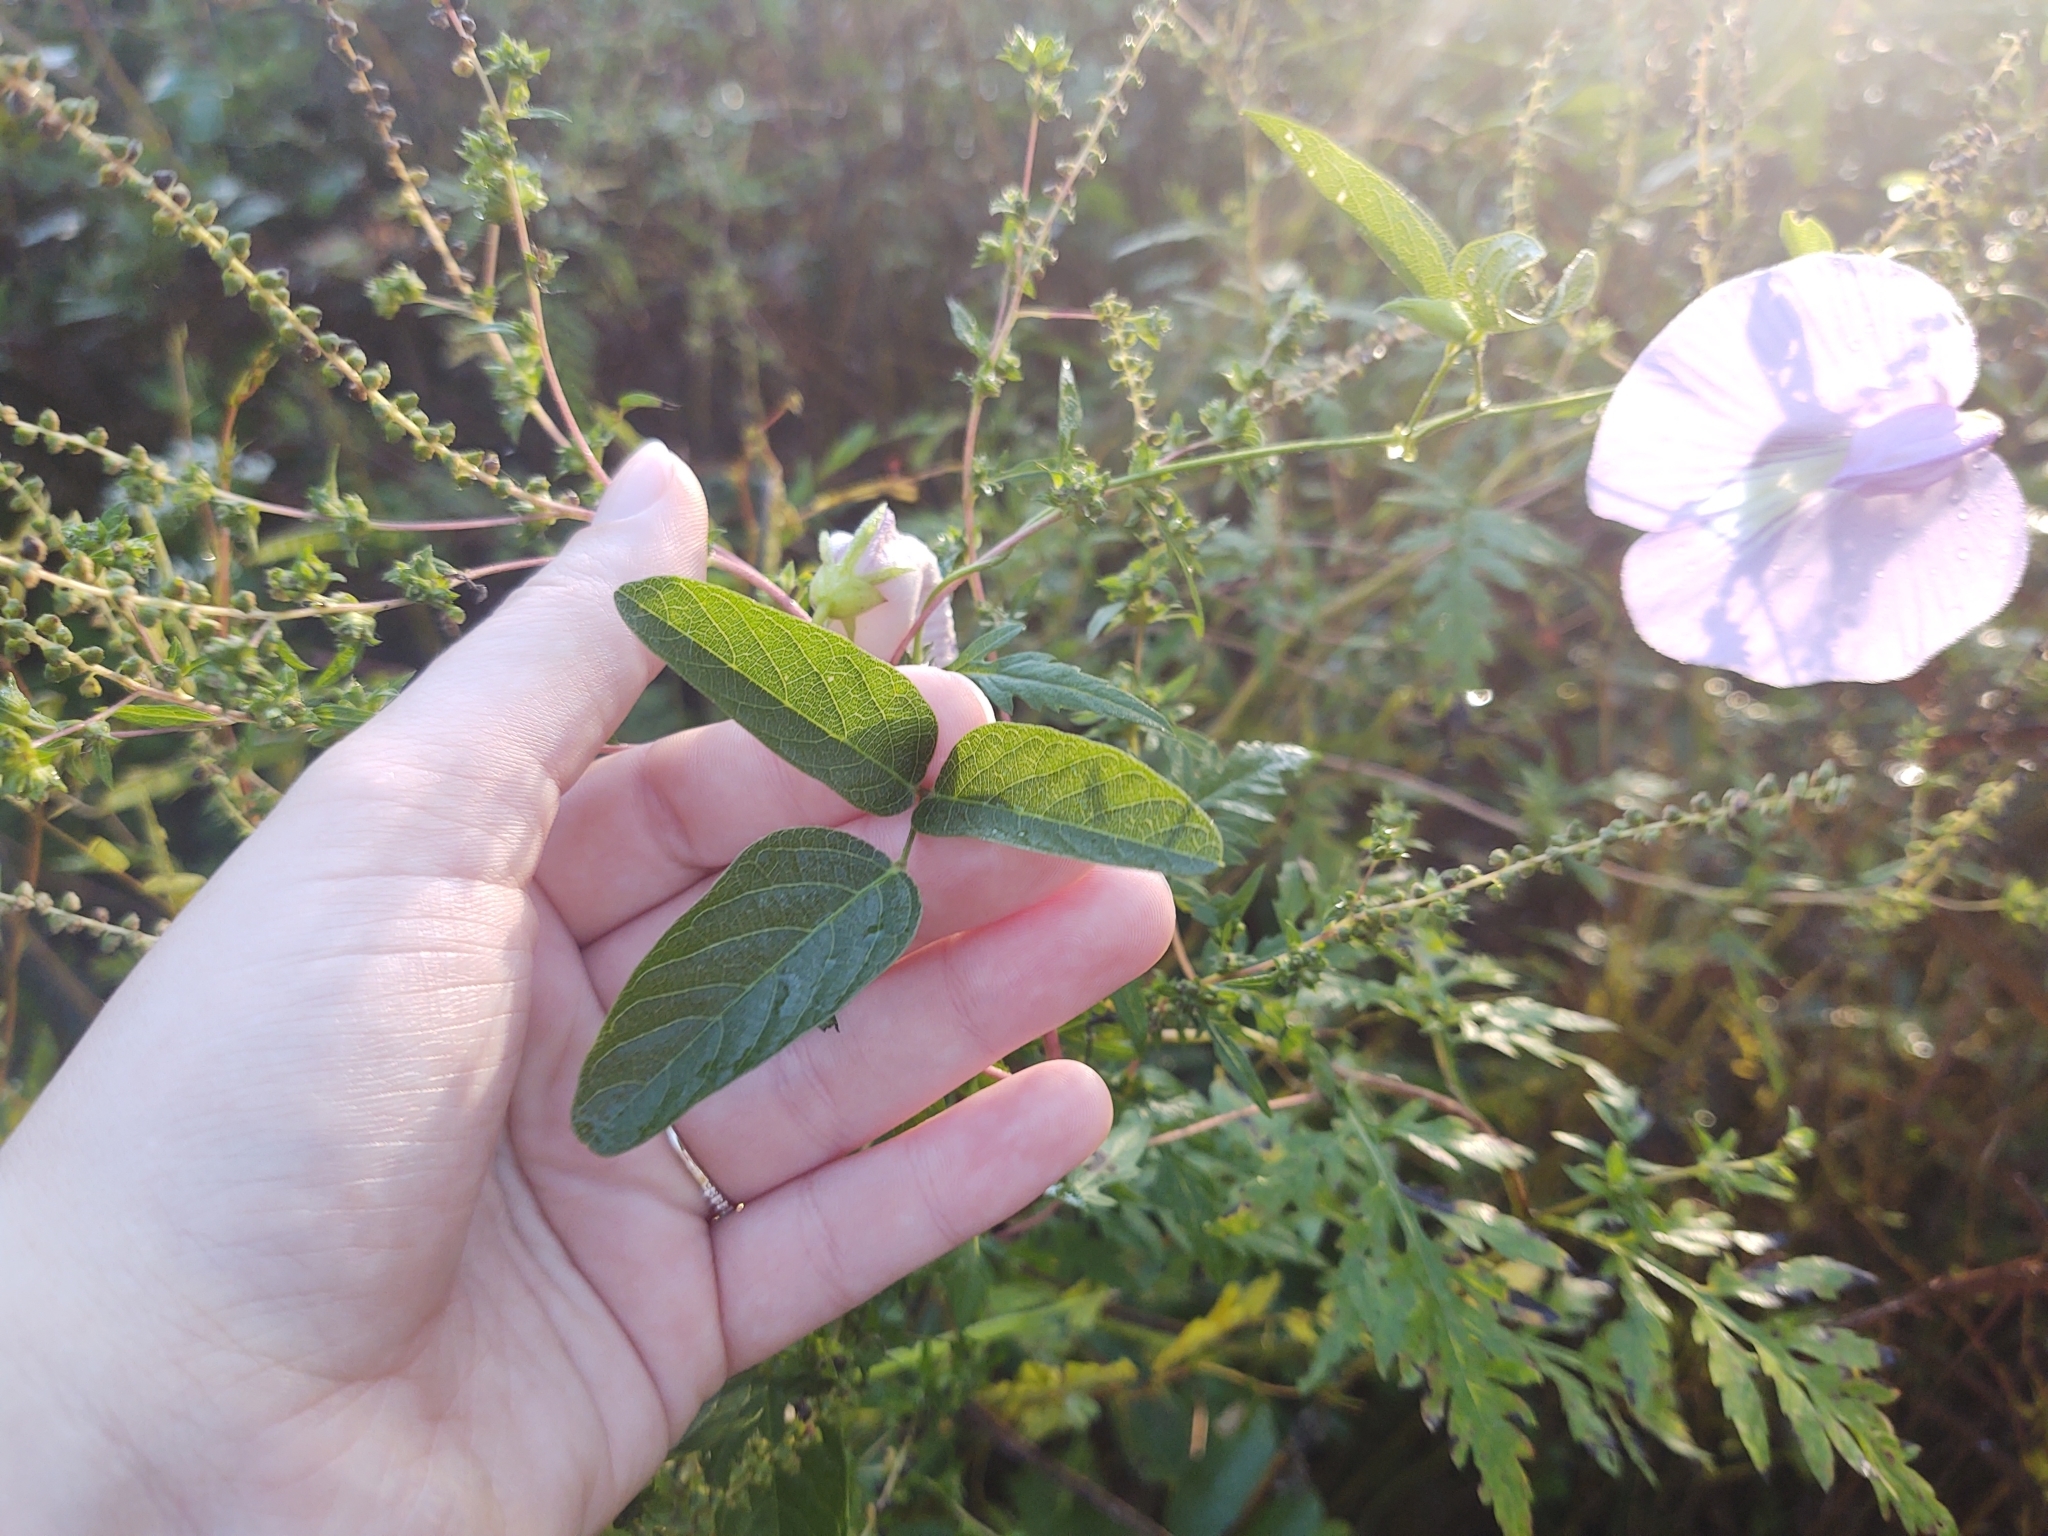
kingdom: Plantae
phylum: Tracheophyta
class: Magnoliopsida
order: Fabales
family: Fabaceae
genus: Centrosema
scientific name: Centrosema virginianum
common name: Butterfly-pea
